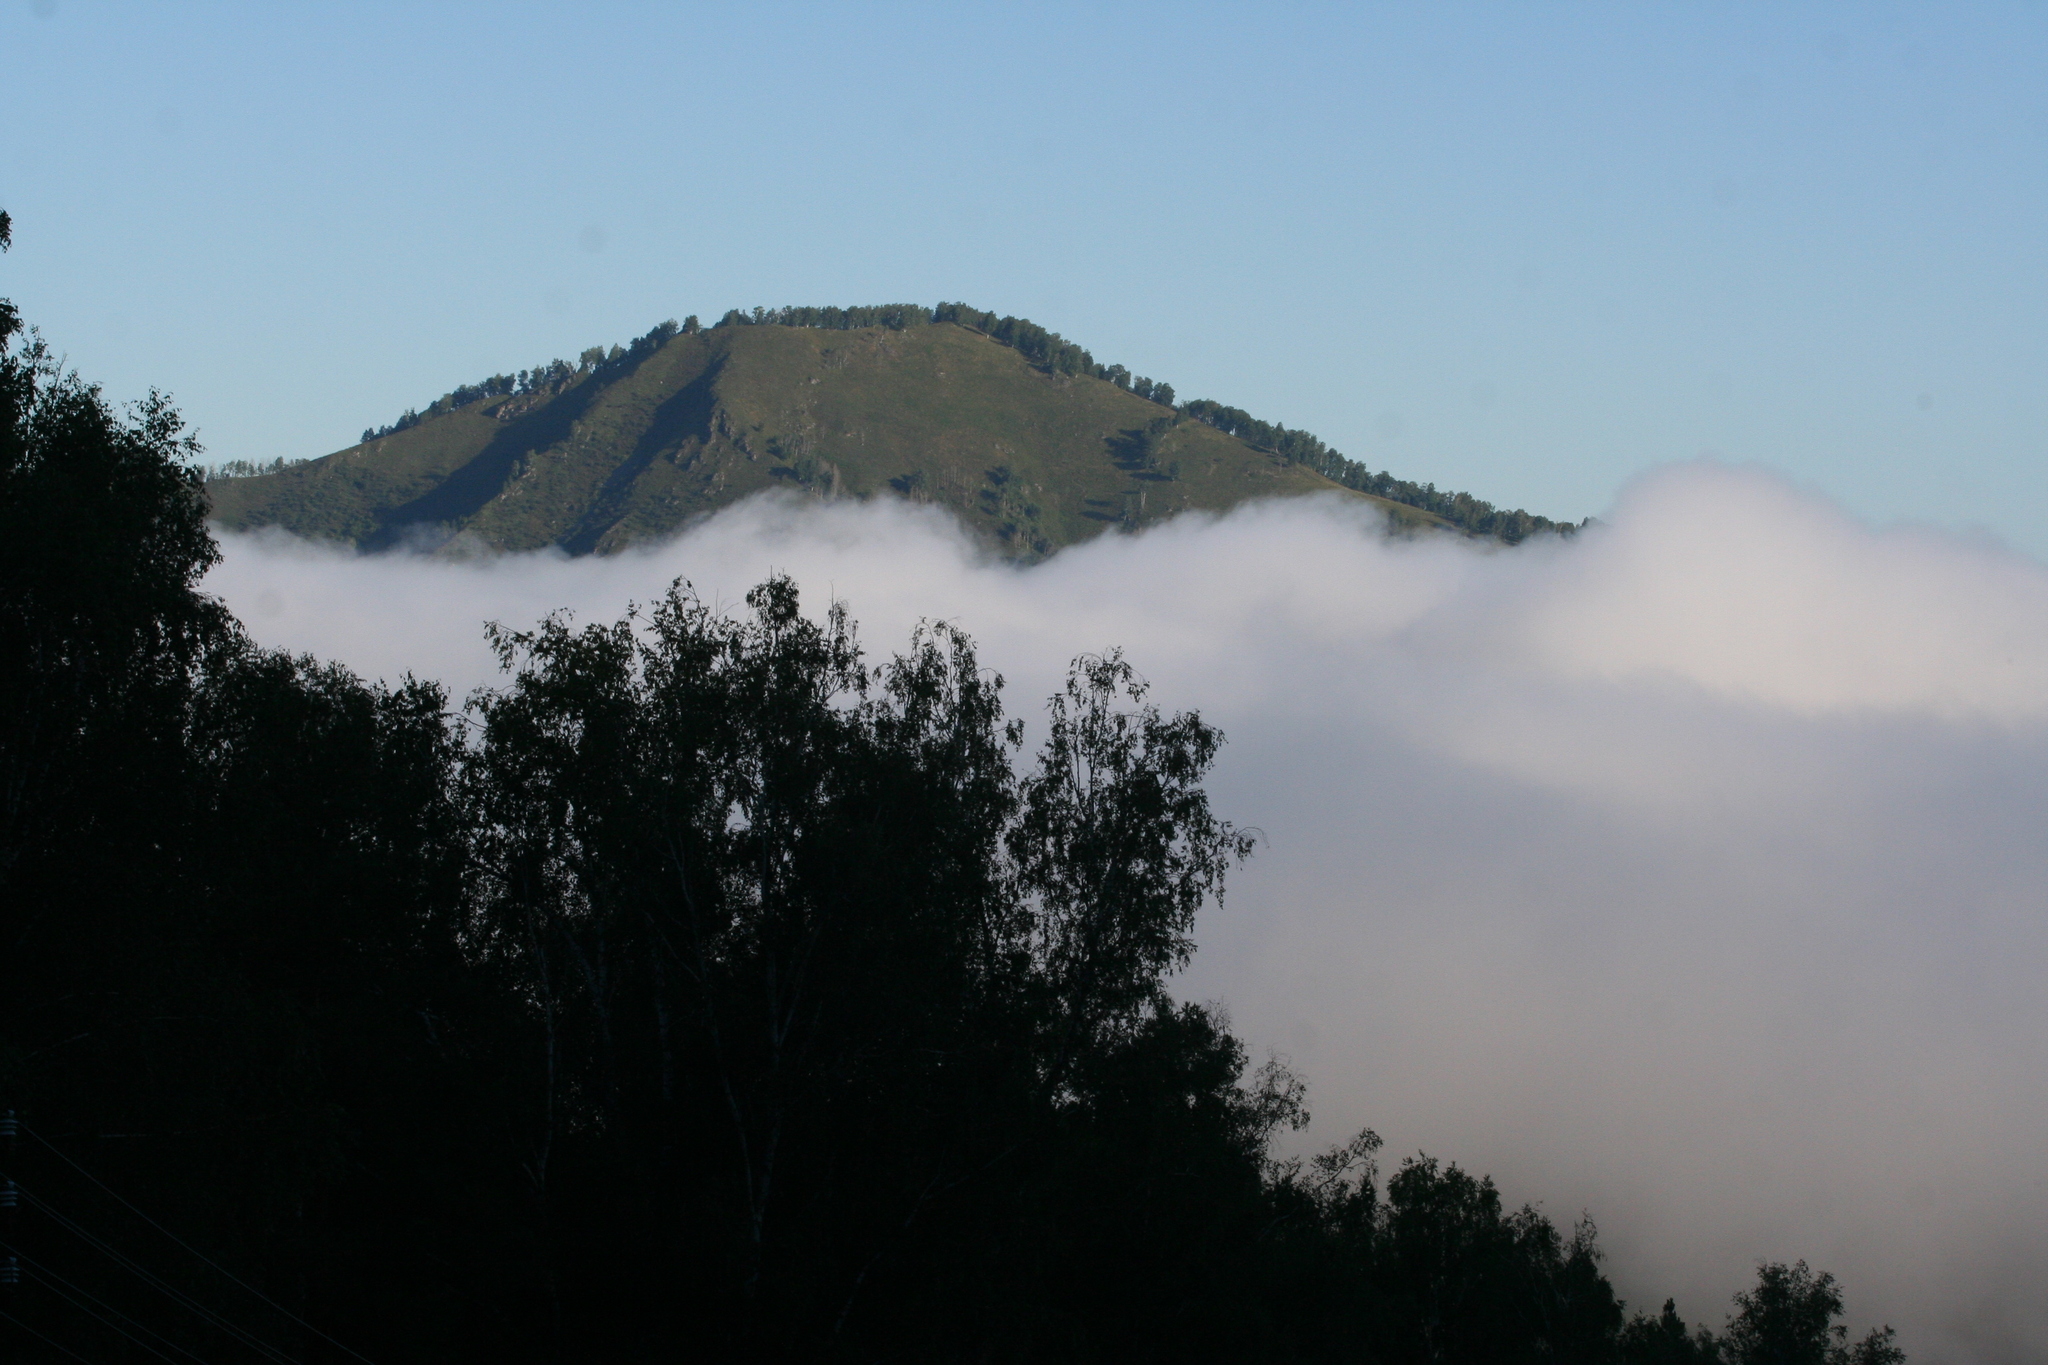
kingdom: Plantae
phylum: Tracheophyta
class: Magnoliopsida
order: Fagales
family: Betulaceae
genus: Betula
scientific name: Betula pendula
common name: Silver birch
